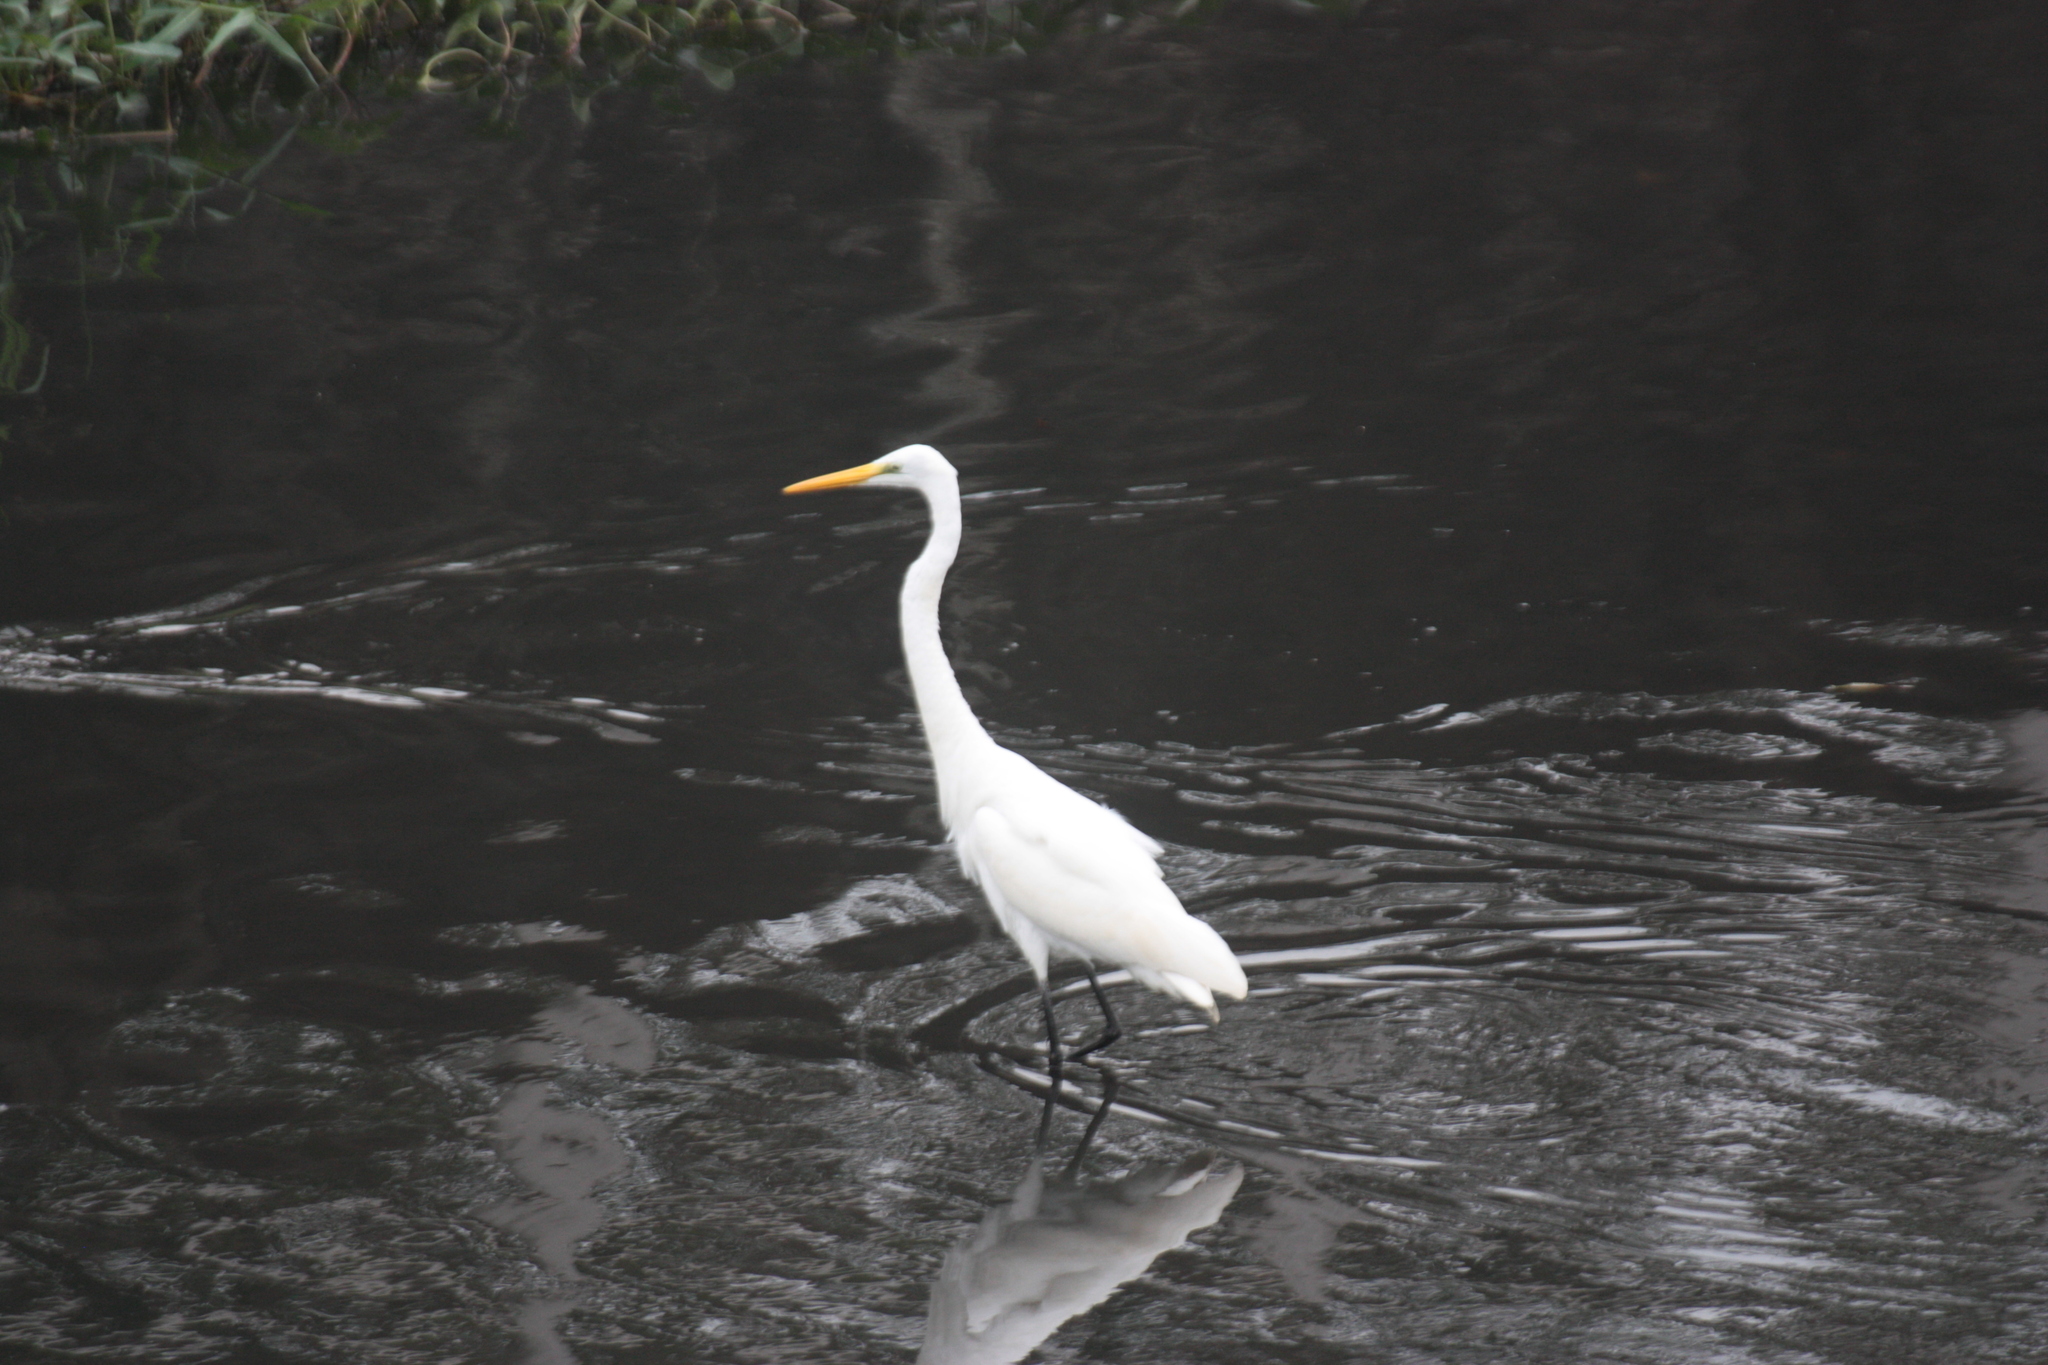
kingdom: Animalia
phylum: Chordata
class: Aves
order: Pelecaniformes
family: Ardeidae
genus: Ardea
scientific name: Ardea alba
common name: Great egret
